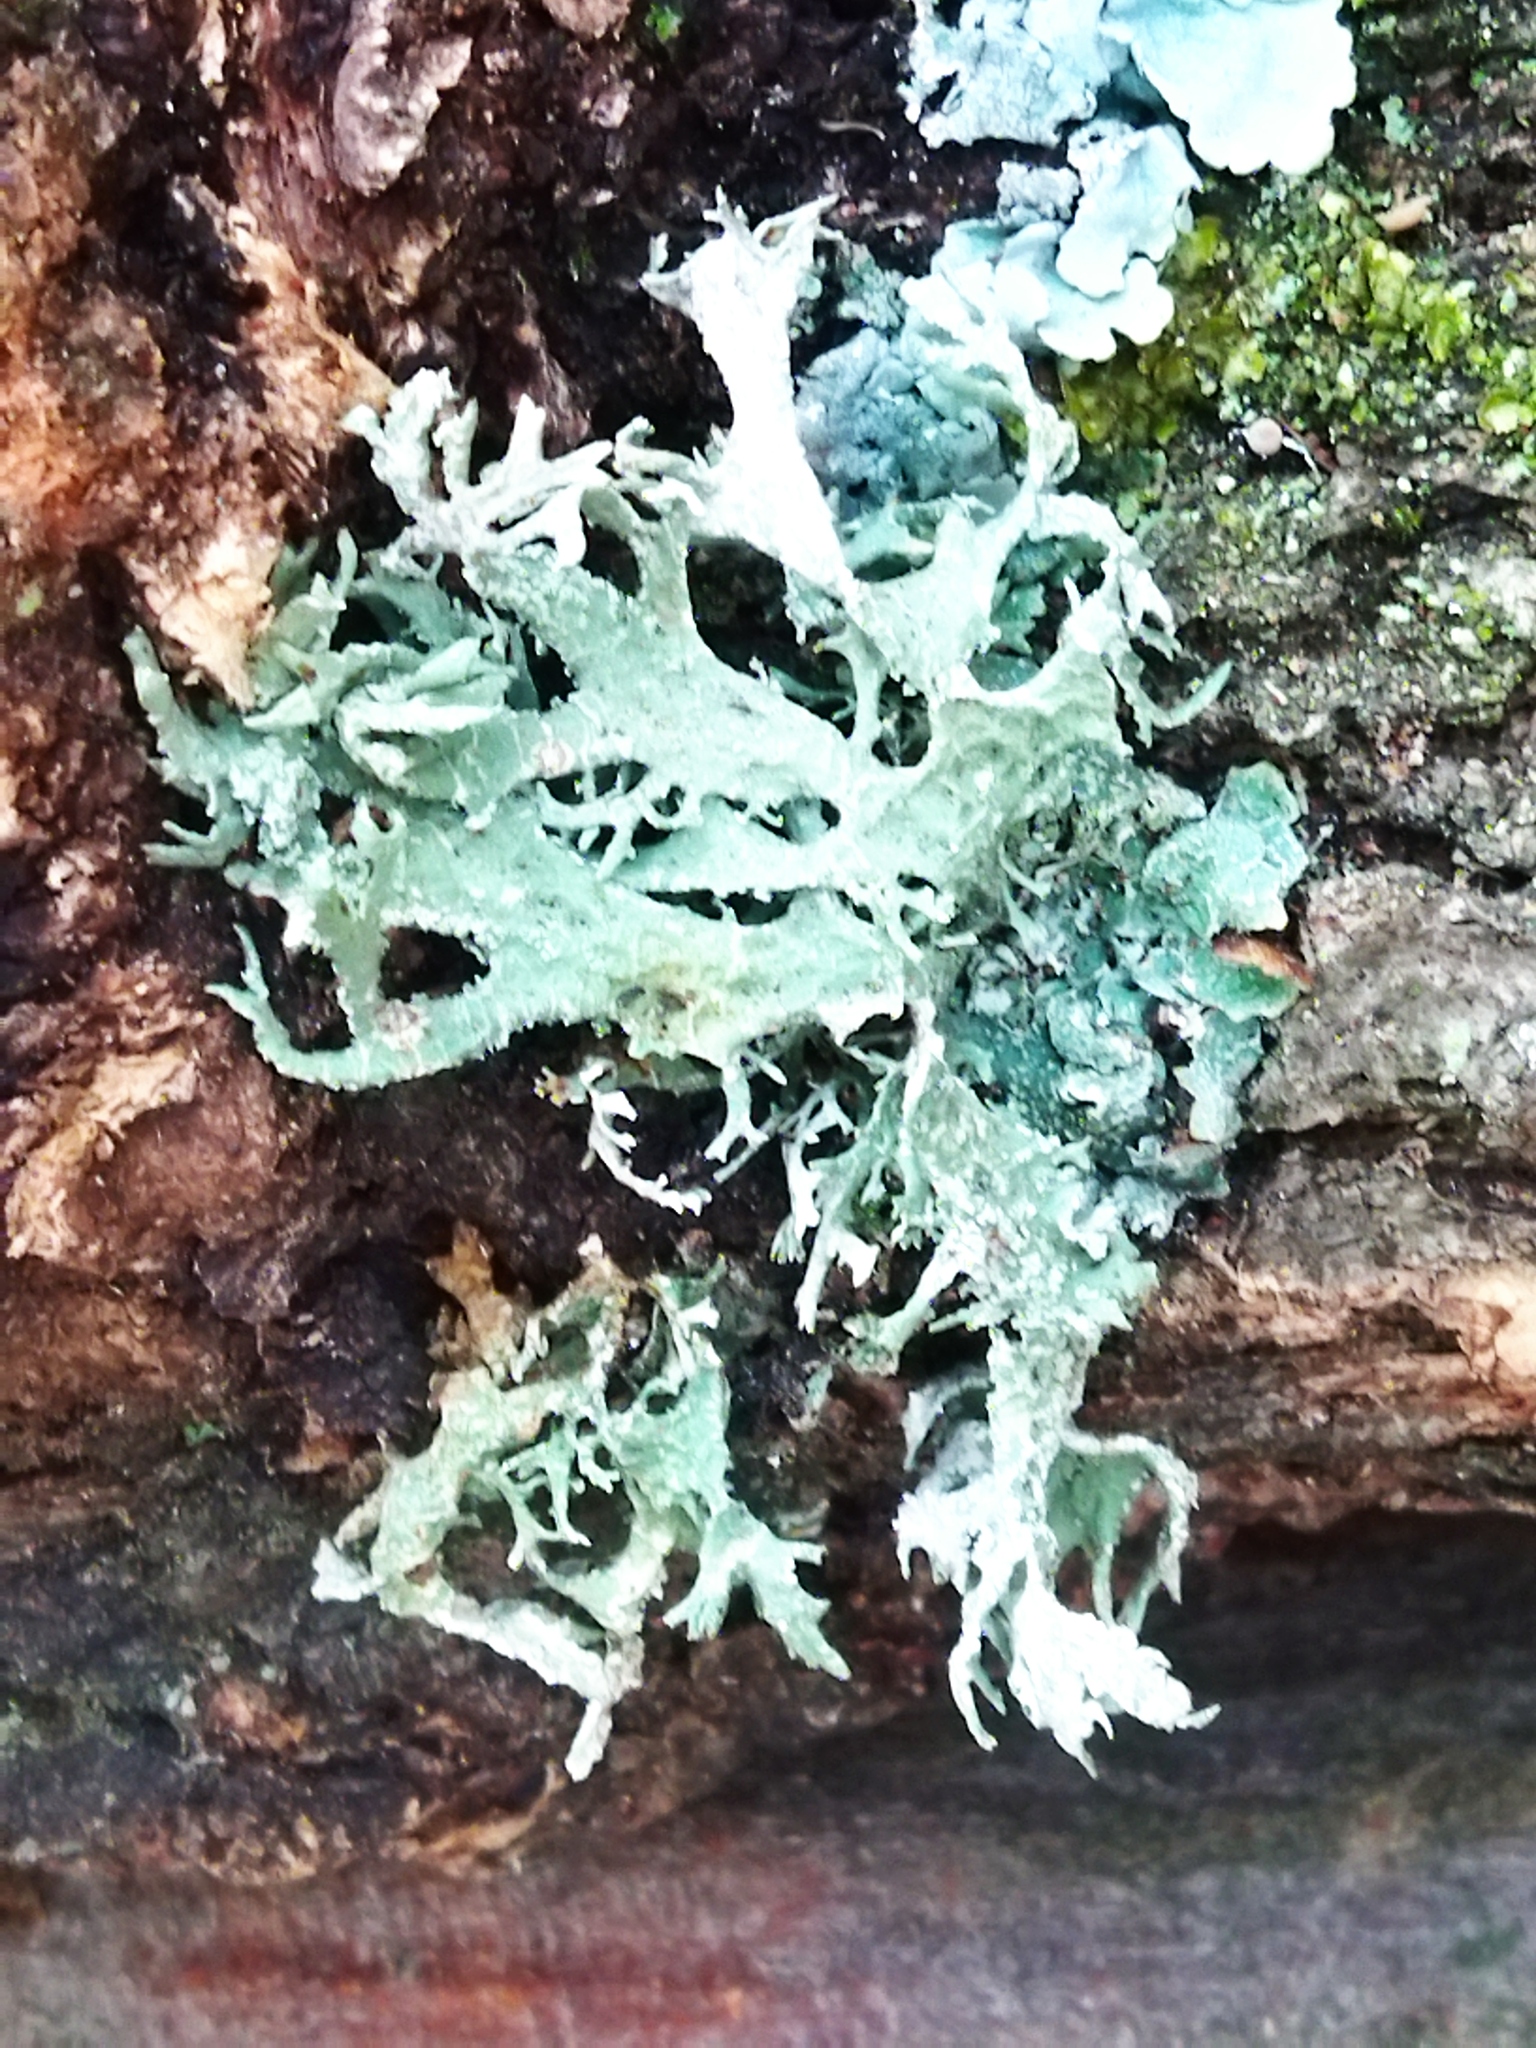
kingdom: Fungi
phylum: Ascomycota
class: Lecanoromycetes
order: Lecanorales
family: Parmeliaceae
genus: Evernia
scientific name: Evernia prunastri
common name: Oak moss
